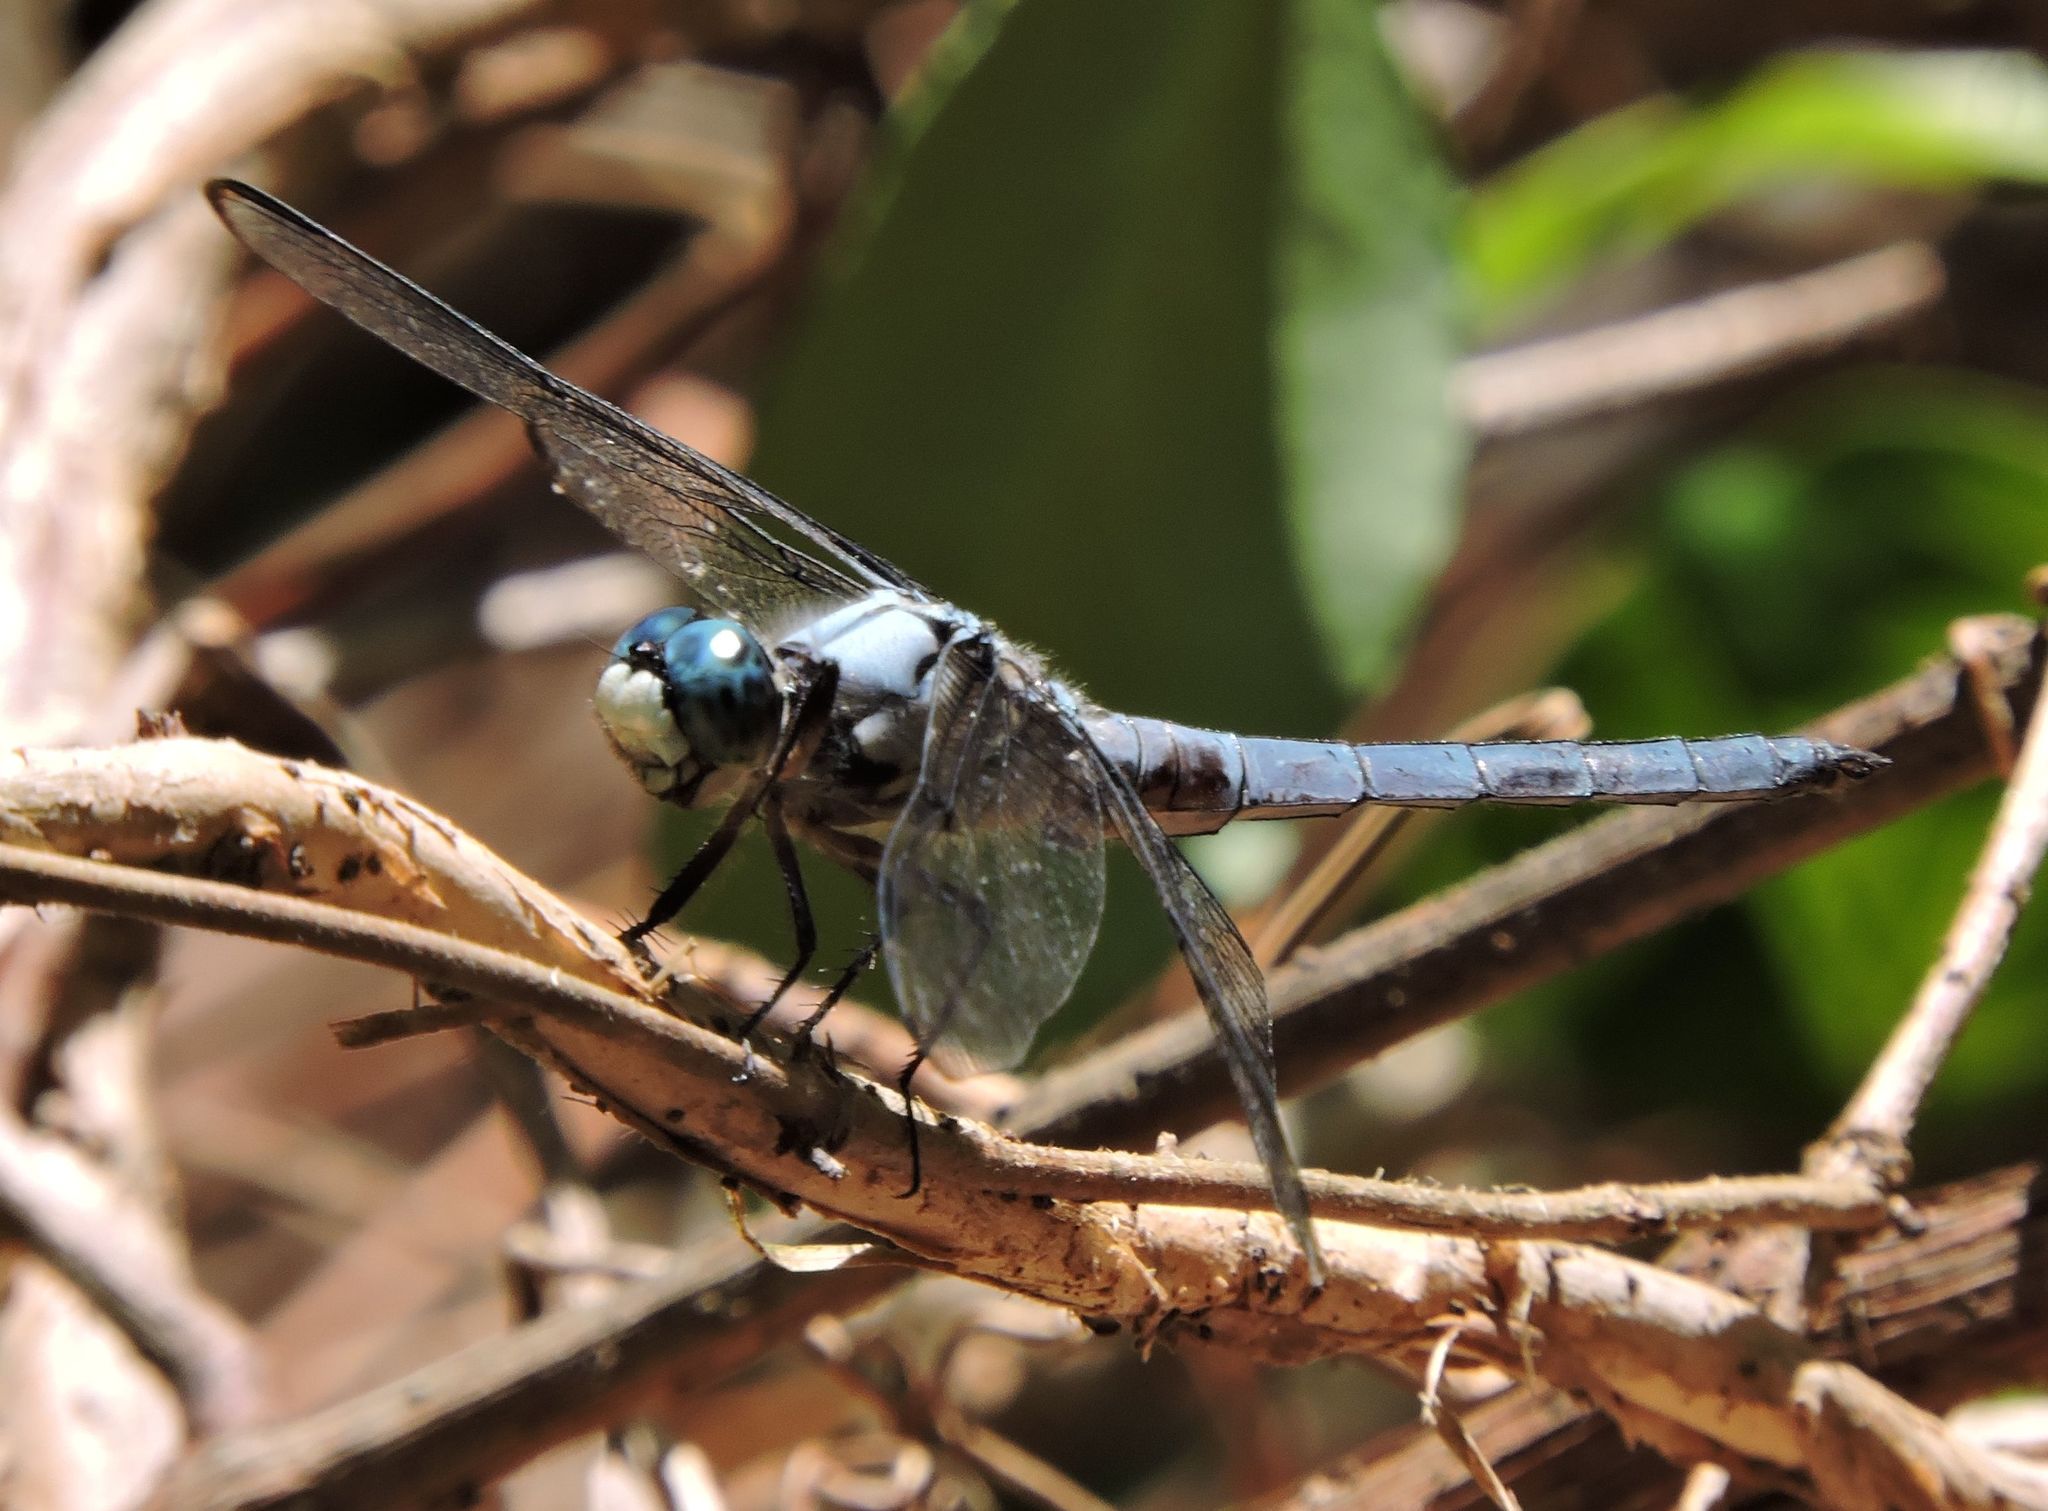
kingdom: Animalia
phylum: Arthropoda
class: Insecta
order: Odonata
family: Libellulidae
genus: Libellula
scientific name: Libellula vibrans
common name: Great blue skimmer
